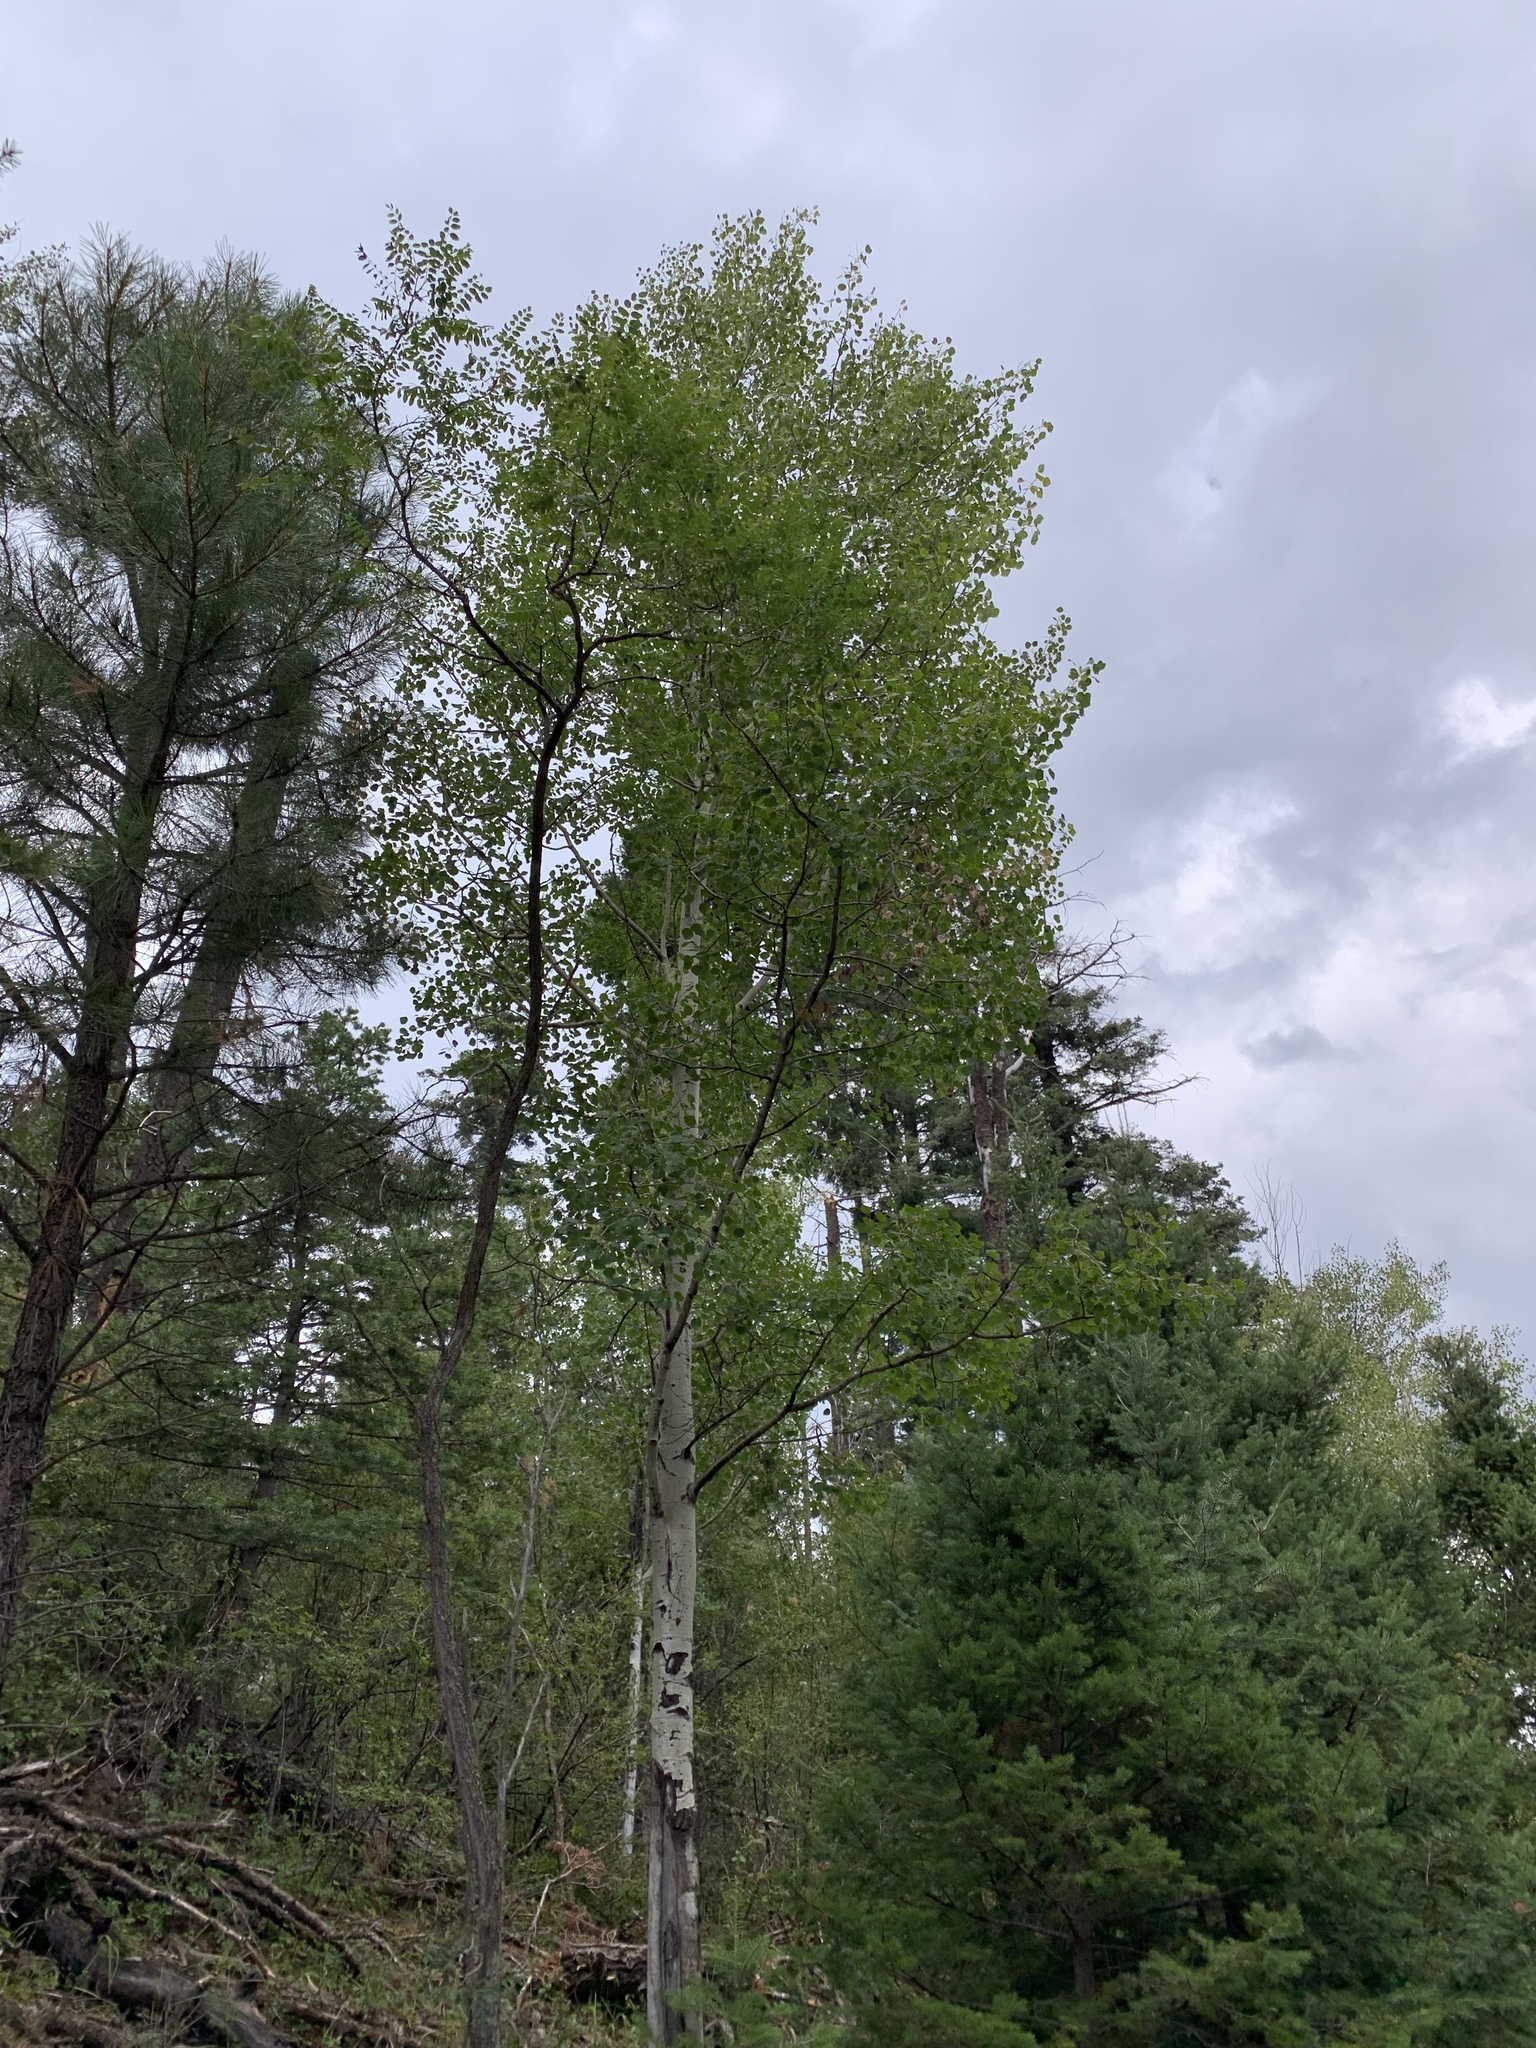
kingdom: Plantae
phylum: Tracheophyta
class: Magnoliopsida
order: Malpighiales
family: Salicaceae
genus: Populus
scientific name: Populus tremuloides
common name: Quaking aspen
